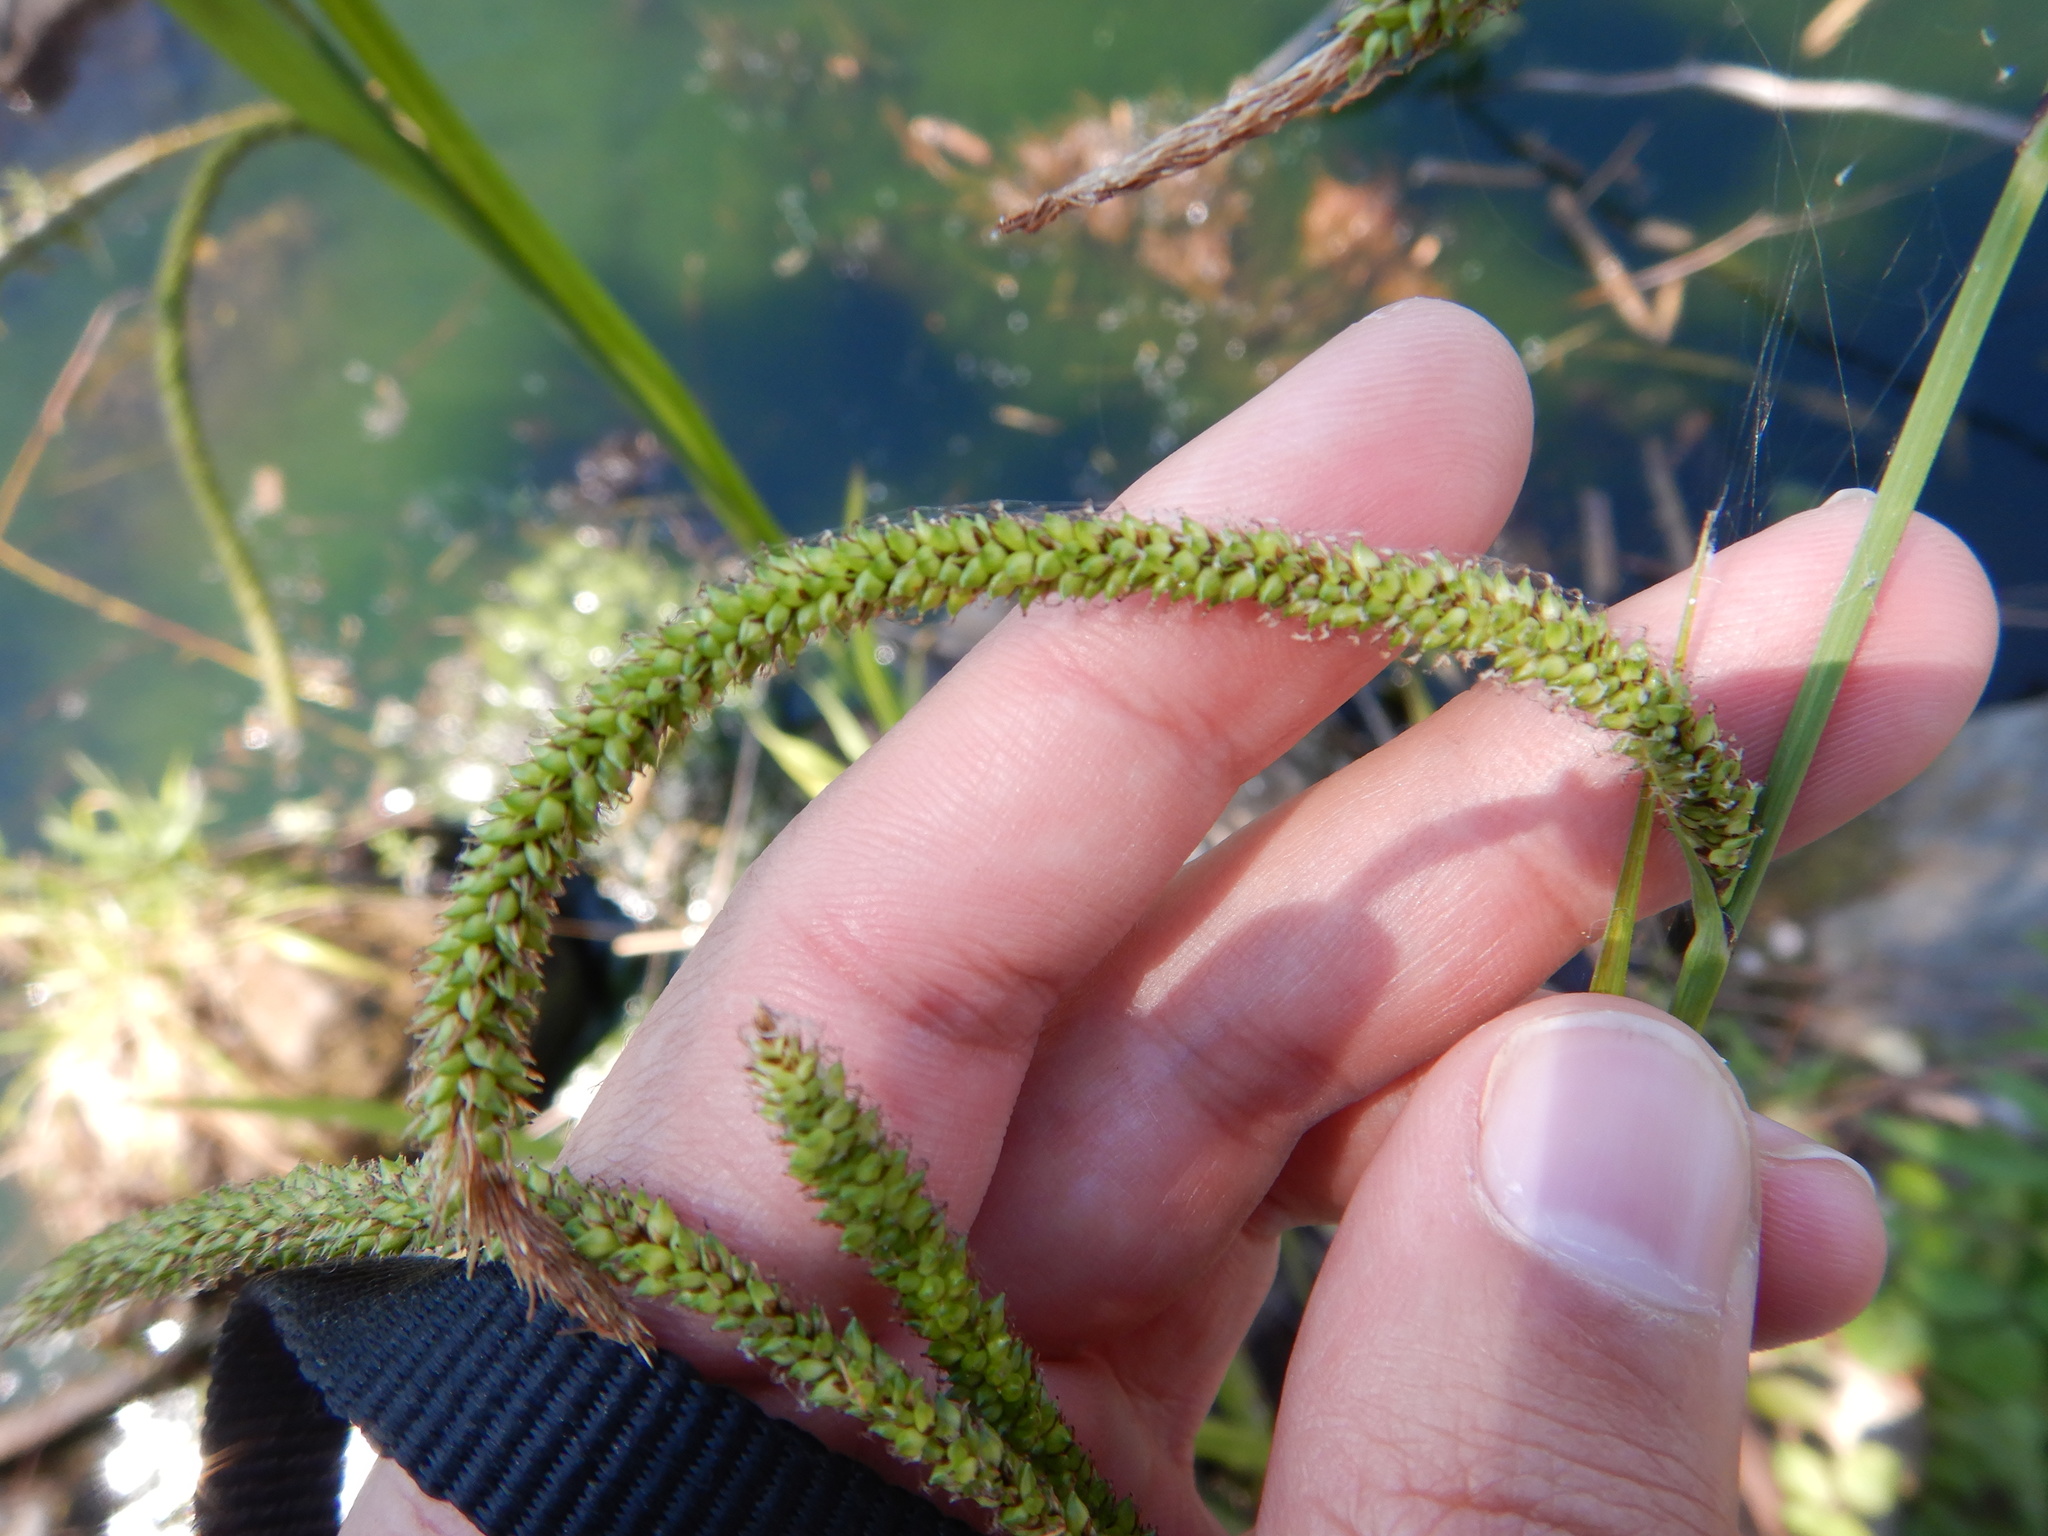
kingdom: Plantae
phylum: Tracheophyta
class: Liliopsida
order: Poales
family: Cyperaceae
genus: Carex
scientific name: Carex pendula
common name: Pendulous sedge
